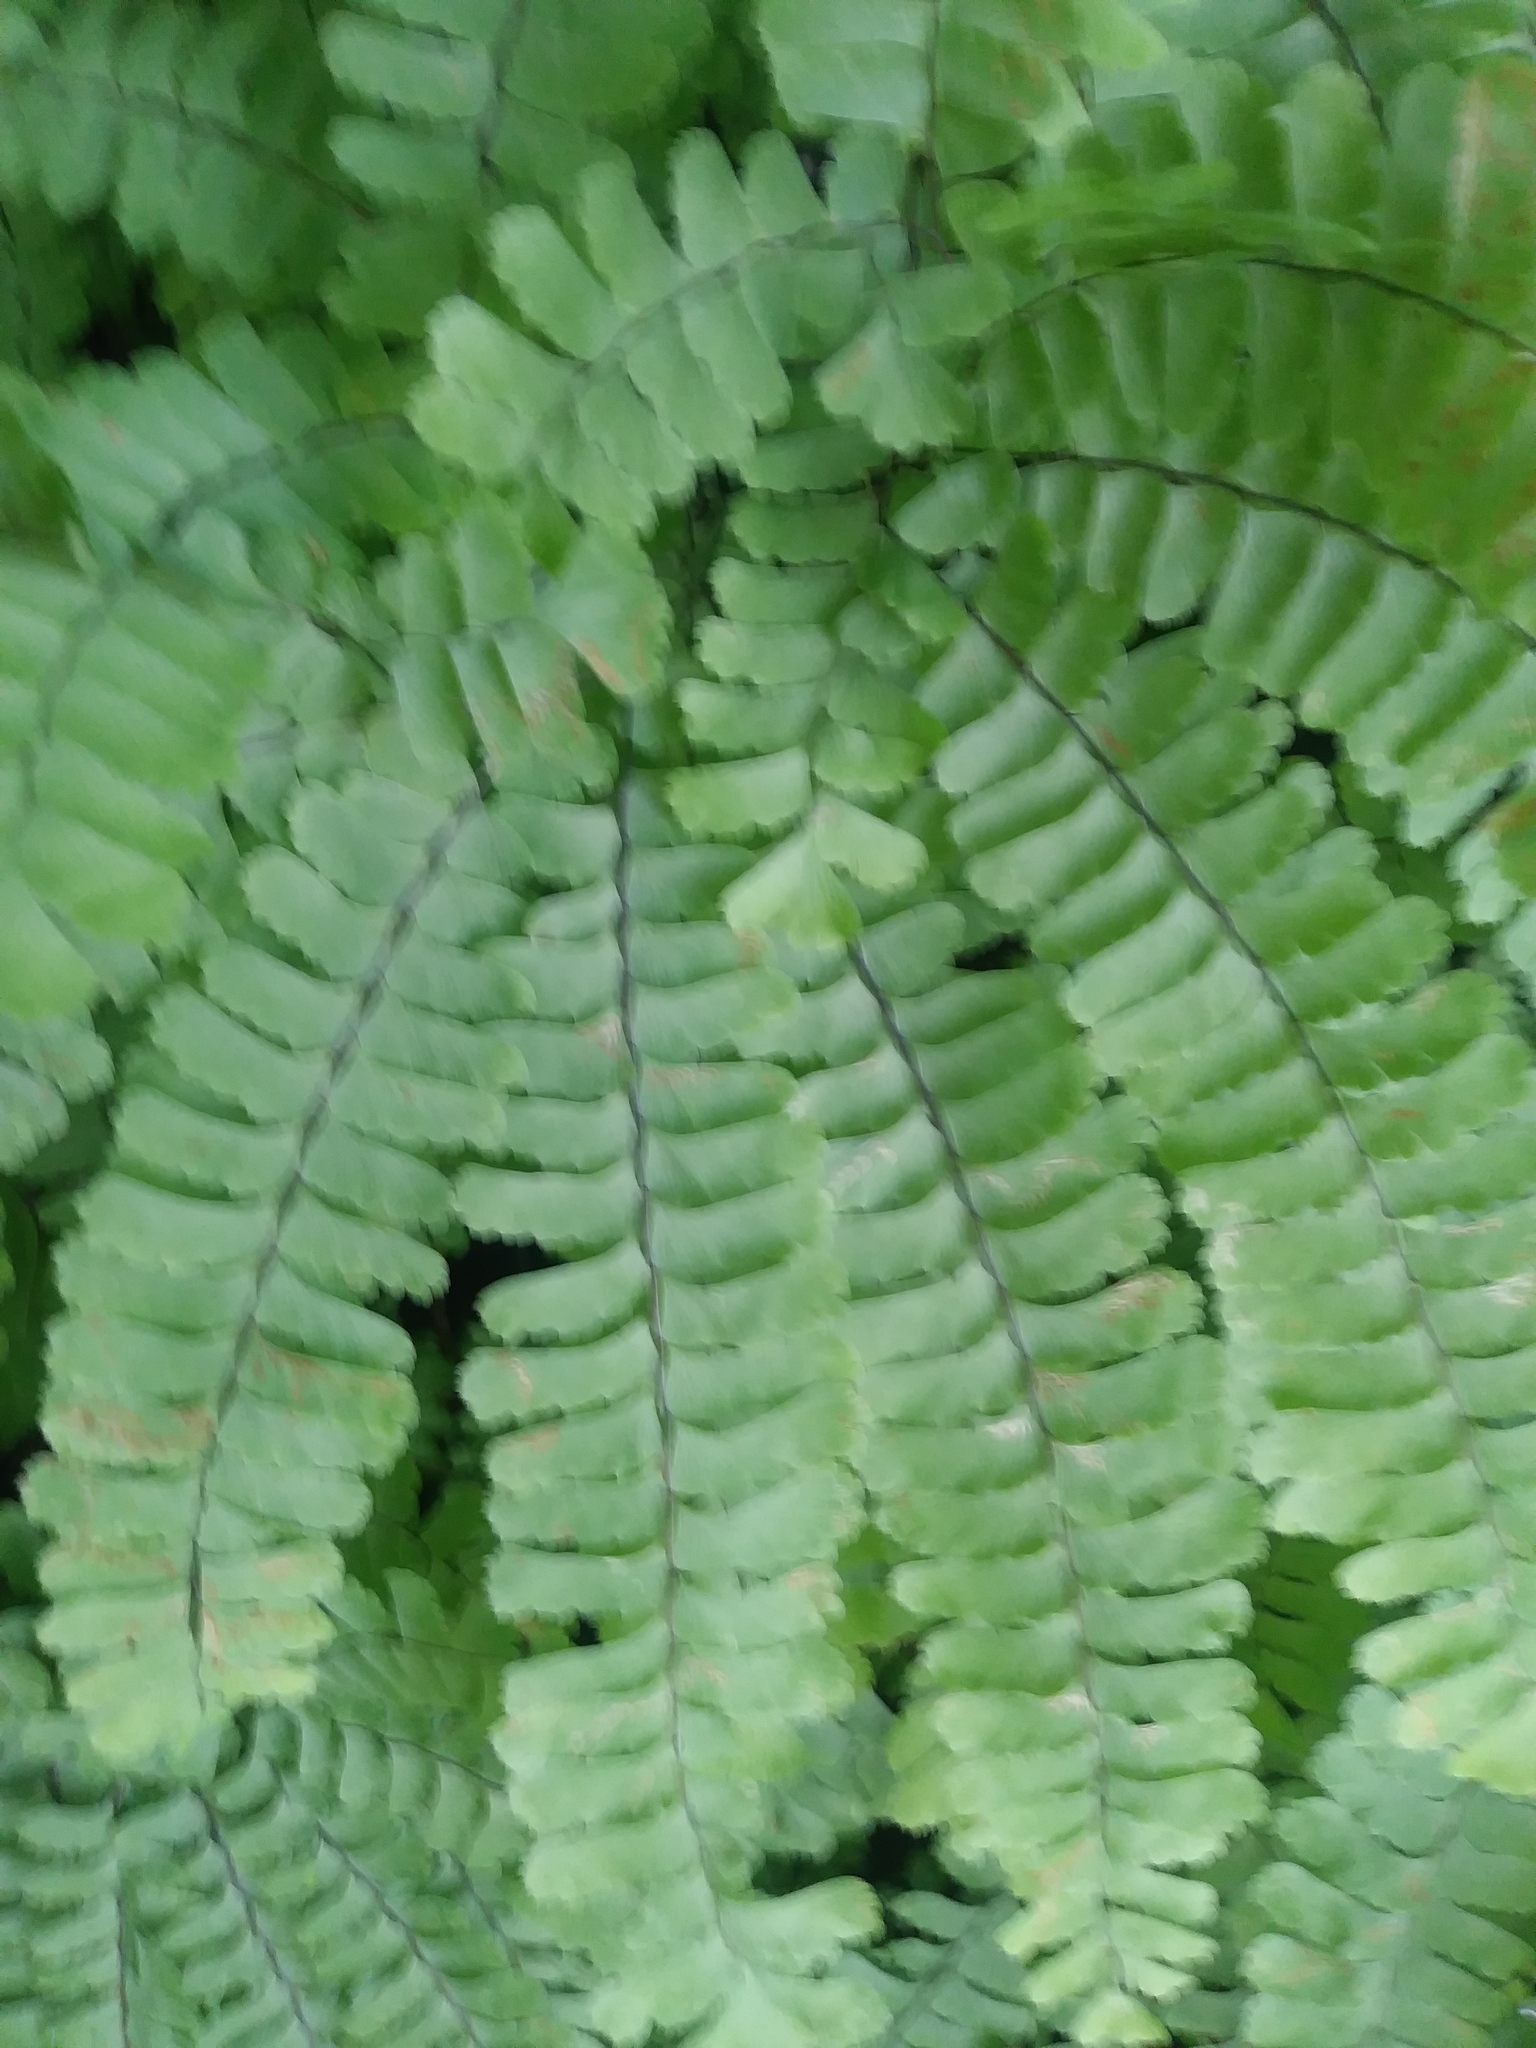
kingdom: Plantae
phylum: Tracheophyta
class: Polypodiopsida
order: Polypodiales
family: Pteridaceae
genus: Adiantum
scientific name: Adiantum pedatum
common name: Five-finger fern
